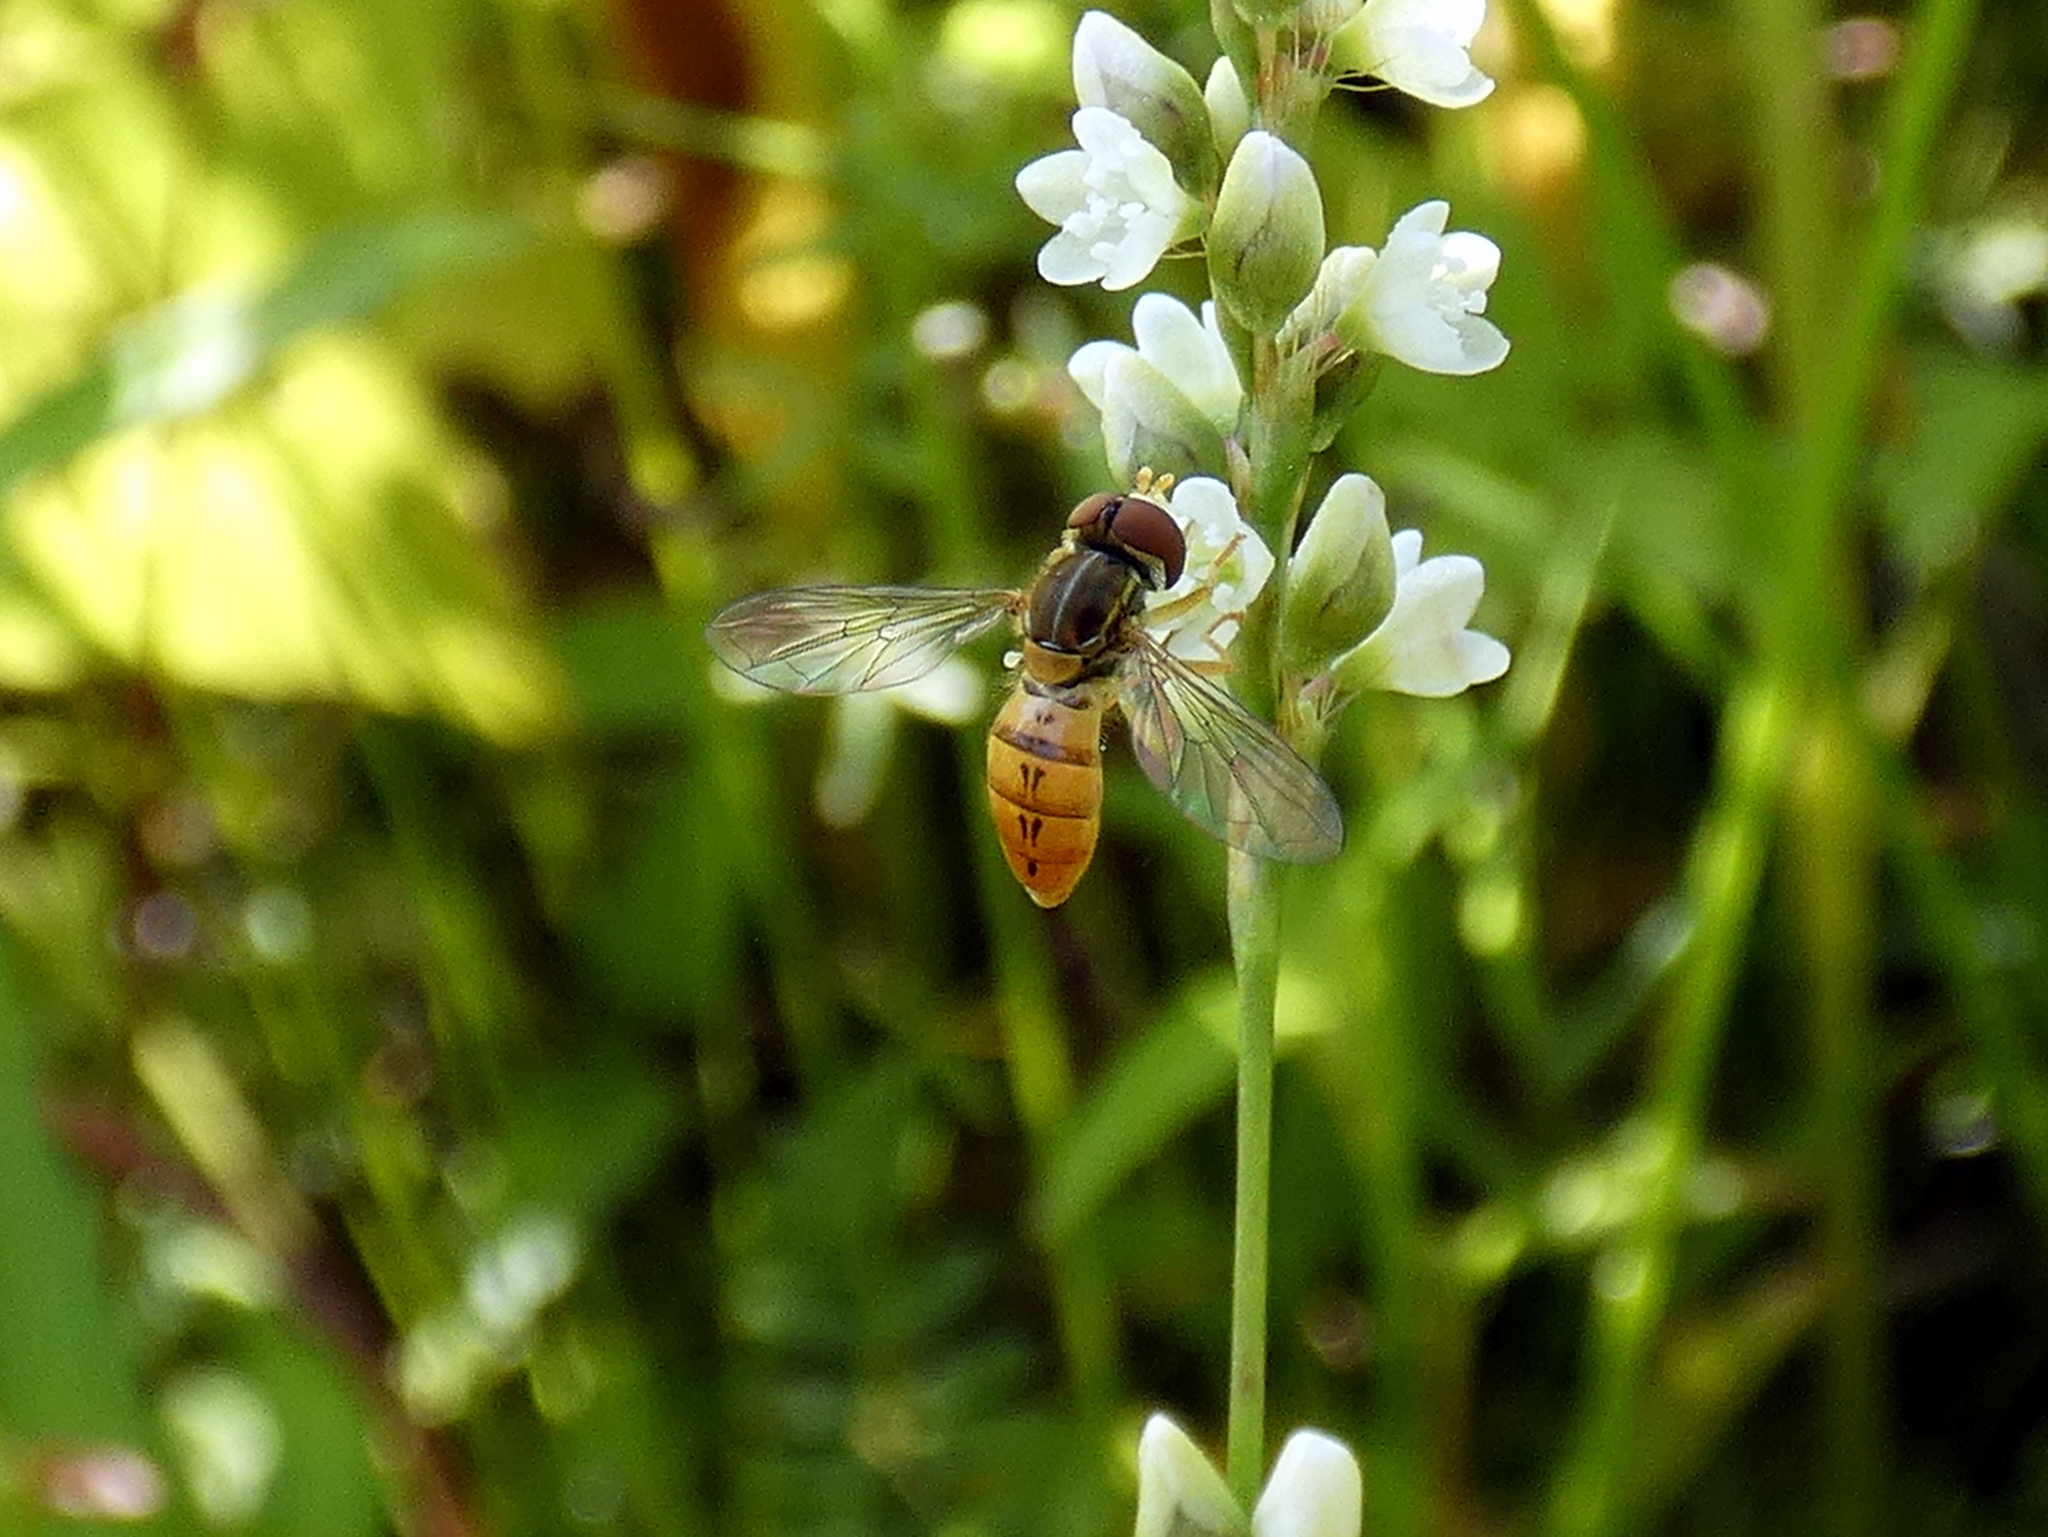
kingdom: Animalia
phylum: Arthropoda
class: Insecta
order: Diptera
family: Syrphidae
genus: Toxomerus
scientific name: Toxomerus corbis
